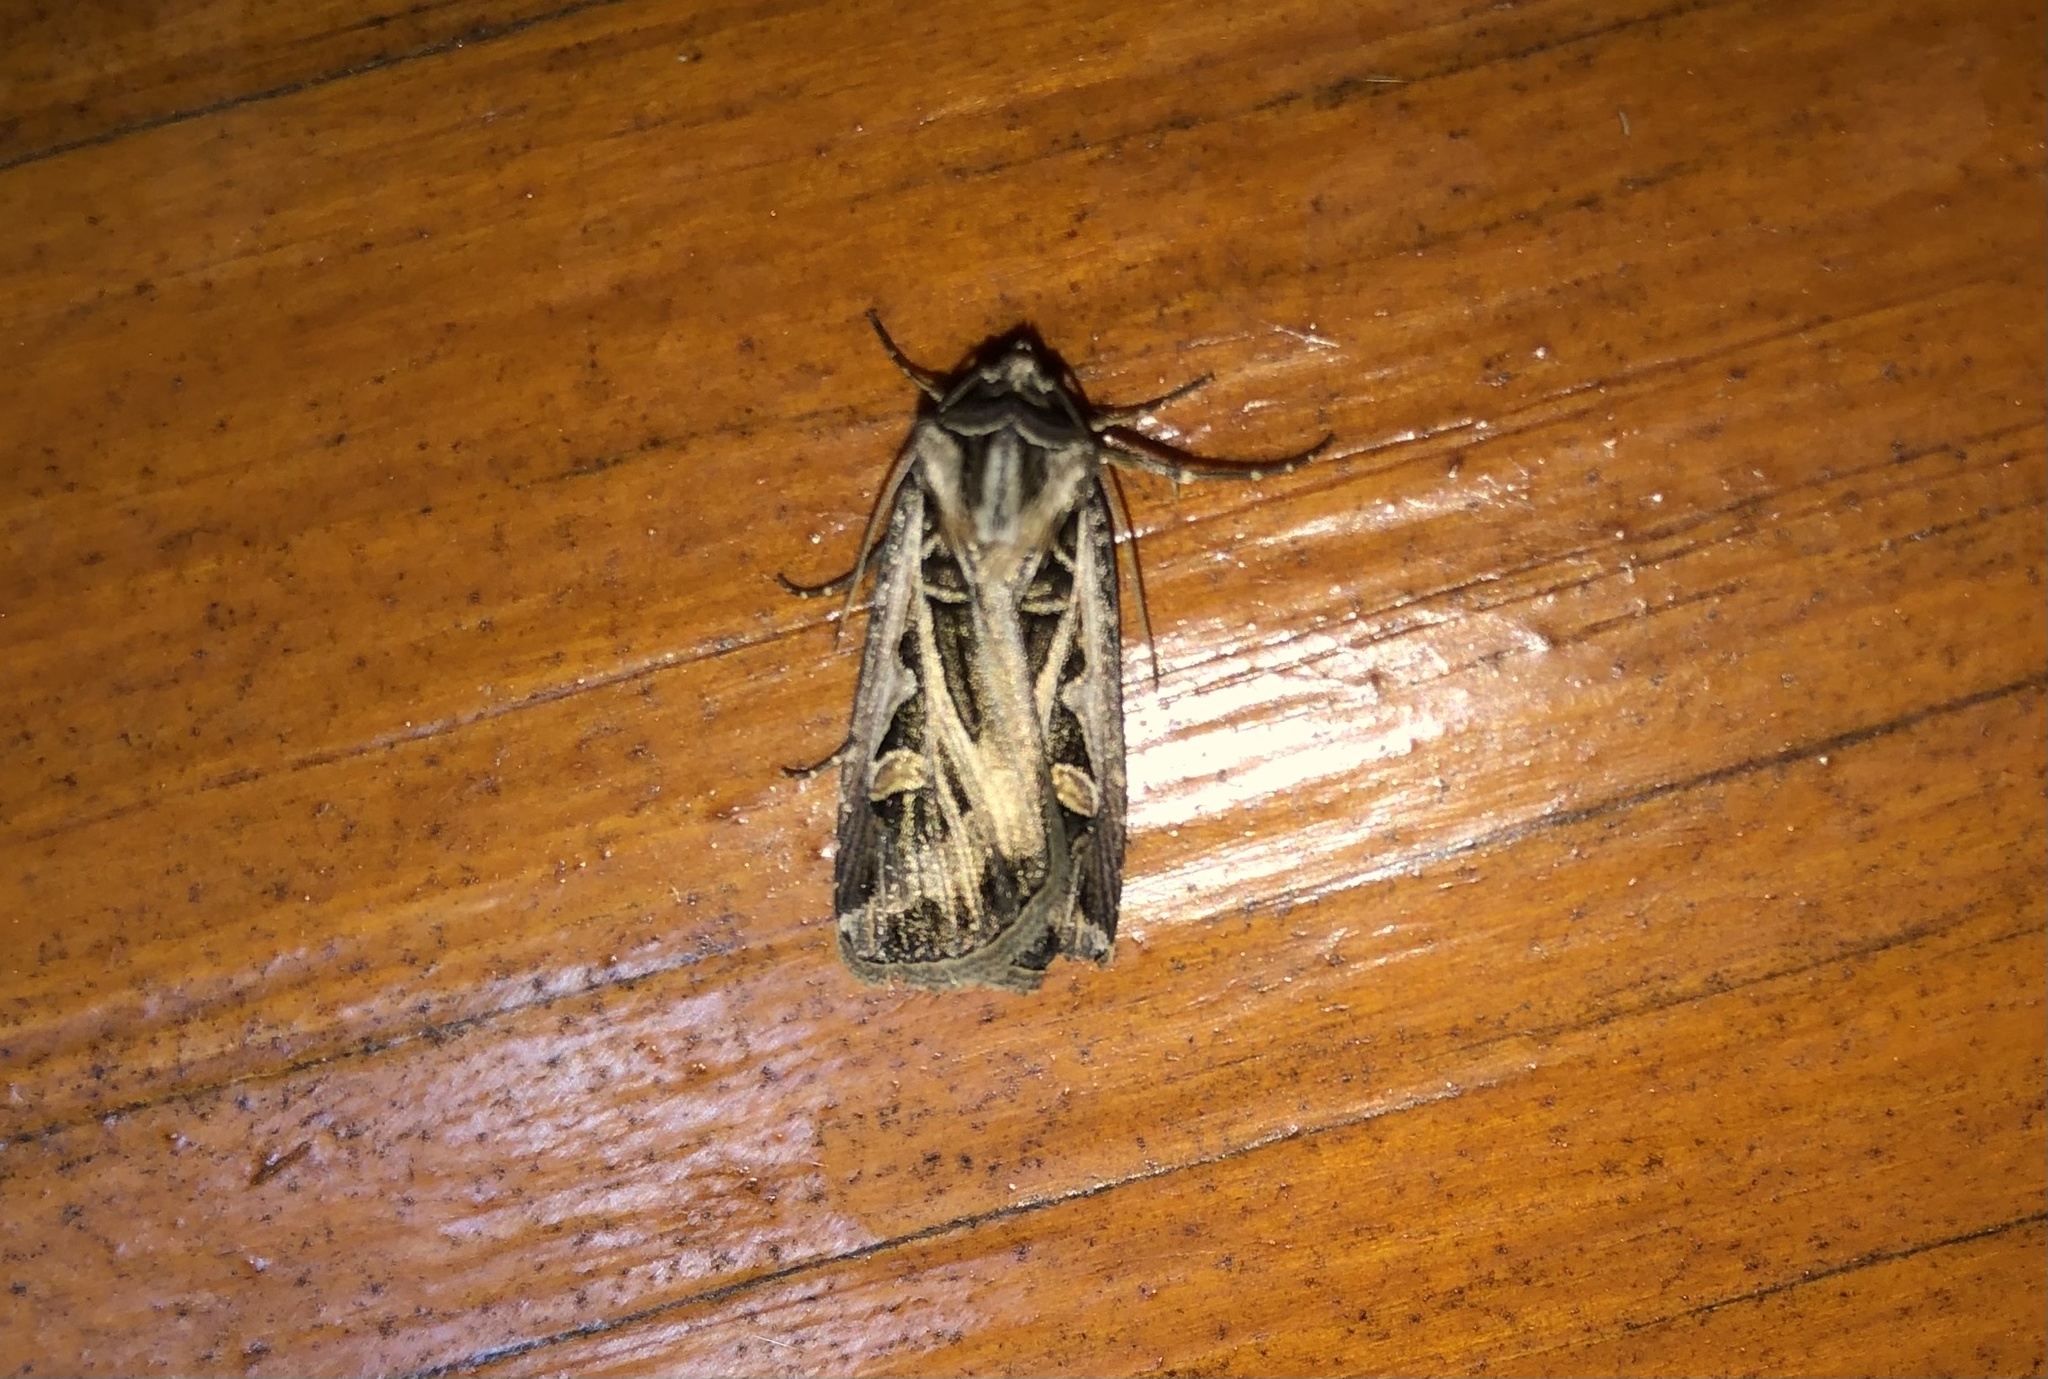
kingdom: Animalia
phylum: Arthropoda
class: Insecta
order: Lepidoptera
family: Noctuidae
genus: Feltia
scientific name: Feltia jaculifera
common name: Dingy cutworm moth
